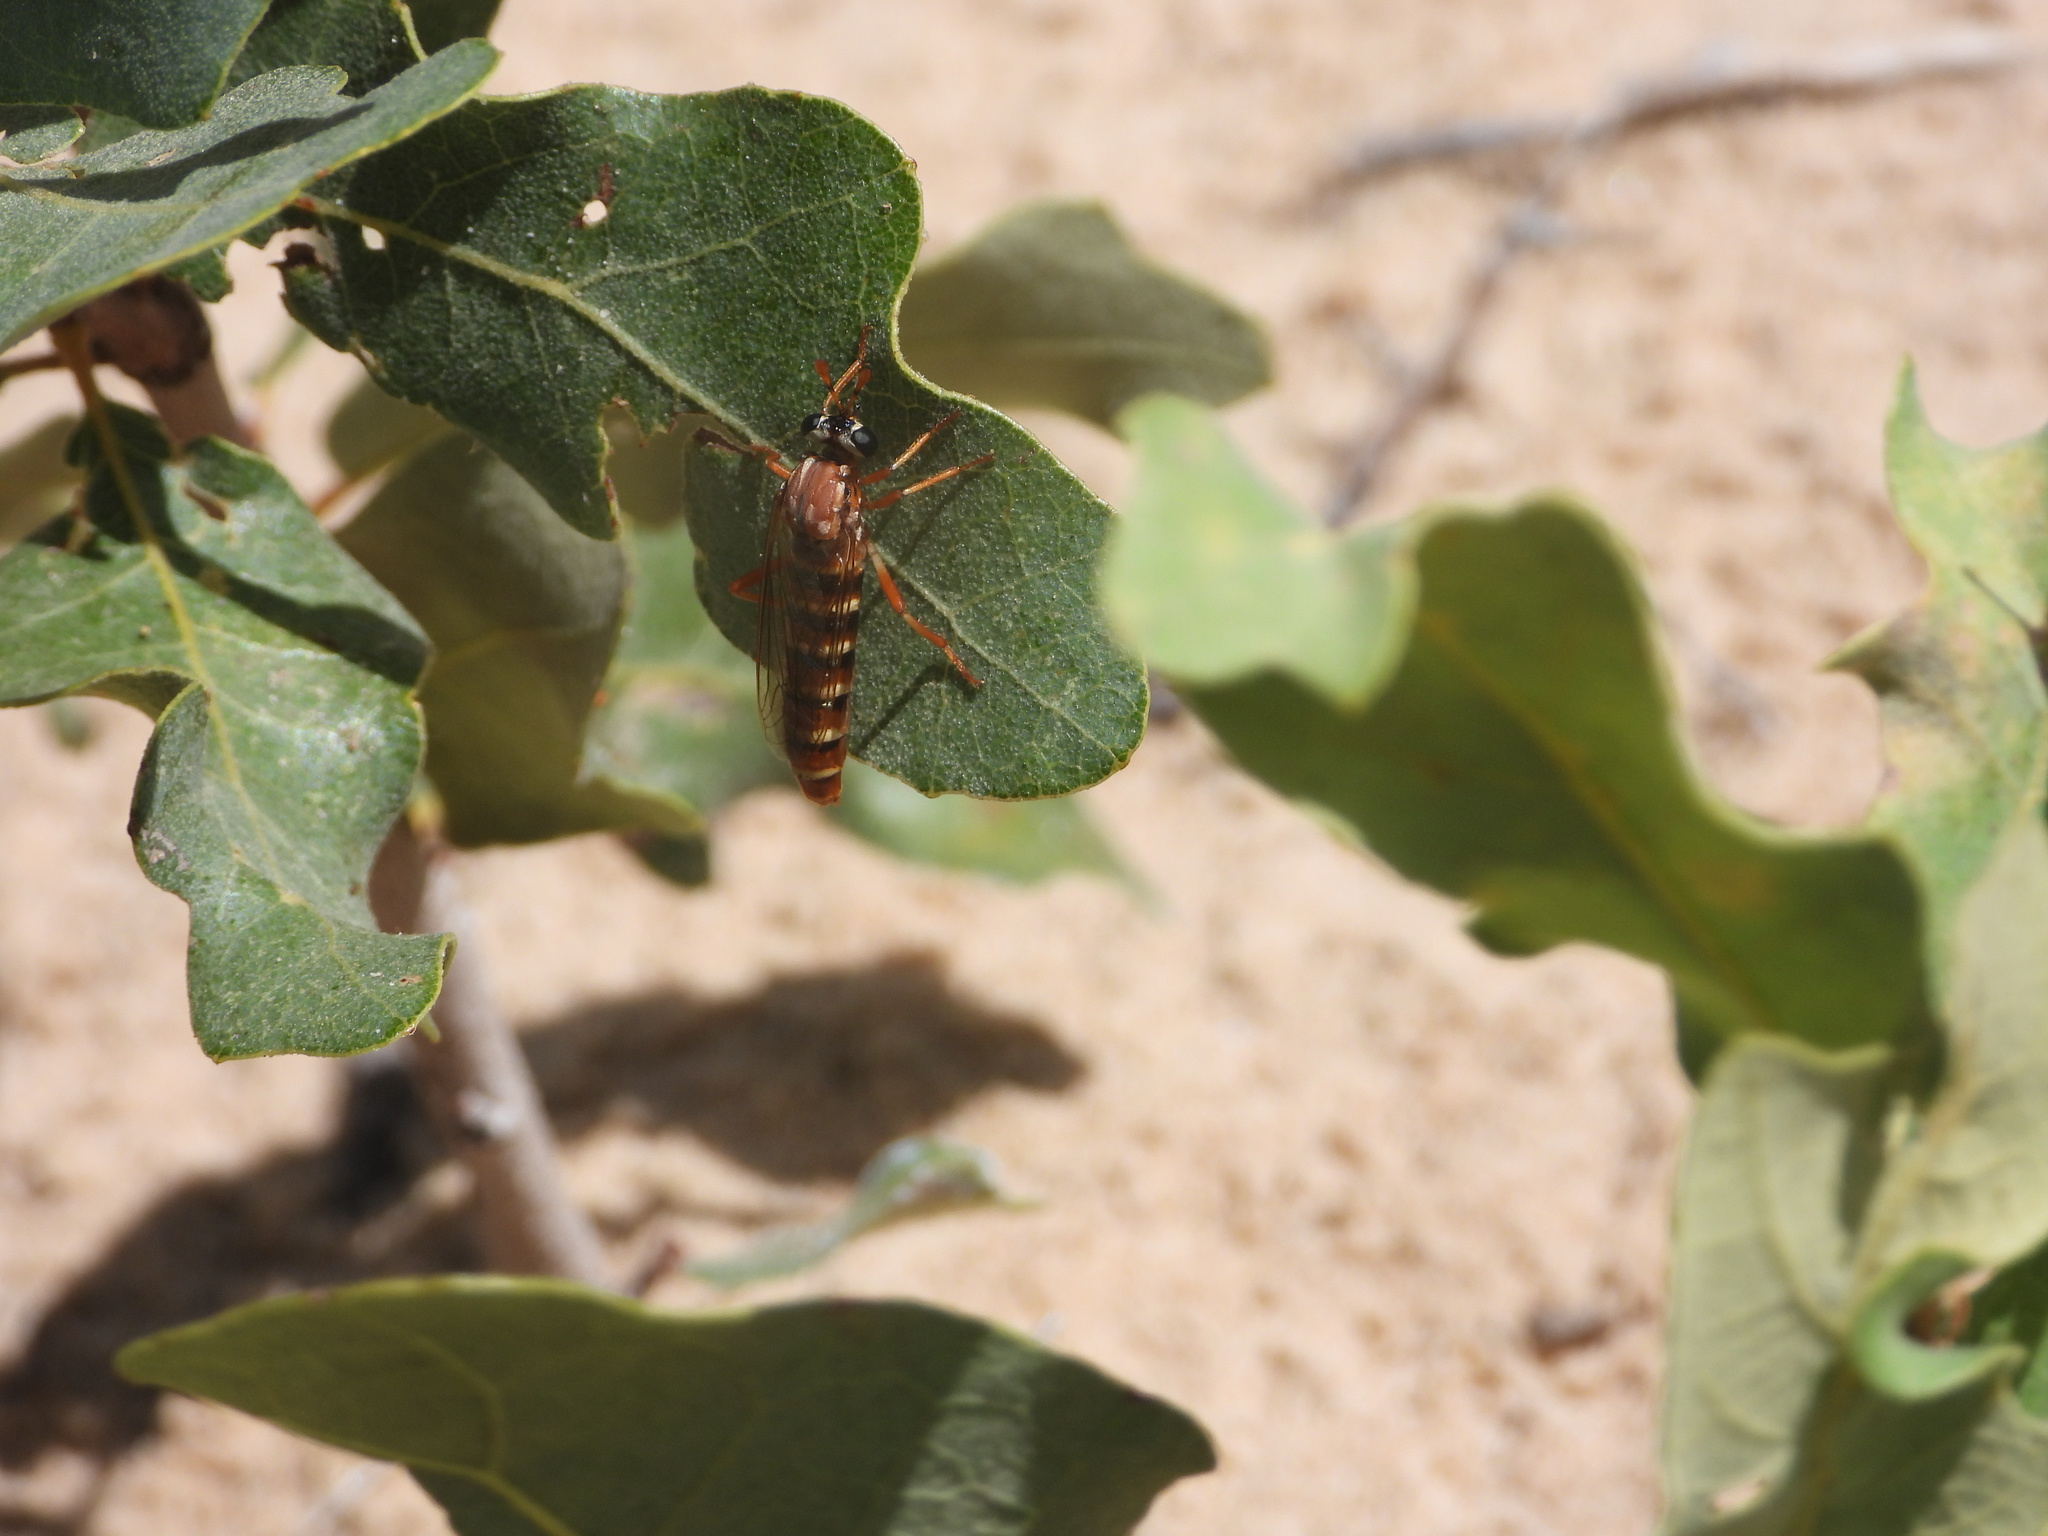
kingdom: Animalia
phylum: Arthropoda
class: Insecta
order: Diptera
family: Mydidae
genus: Nemomydas
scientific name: Nemomydas venosus
